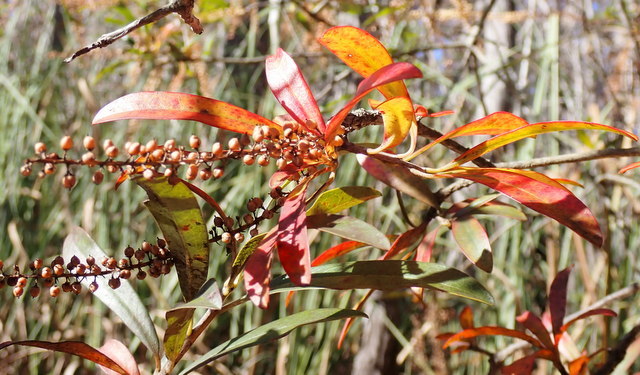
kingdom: Plantae
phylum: Tracheophyta
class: Magnoliopsida
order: Ericales
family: Cyrillaceae
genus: Cyrilla
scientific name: Cyrilla racemiflora
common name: Black titi
